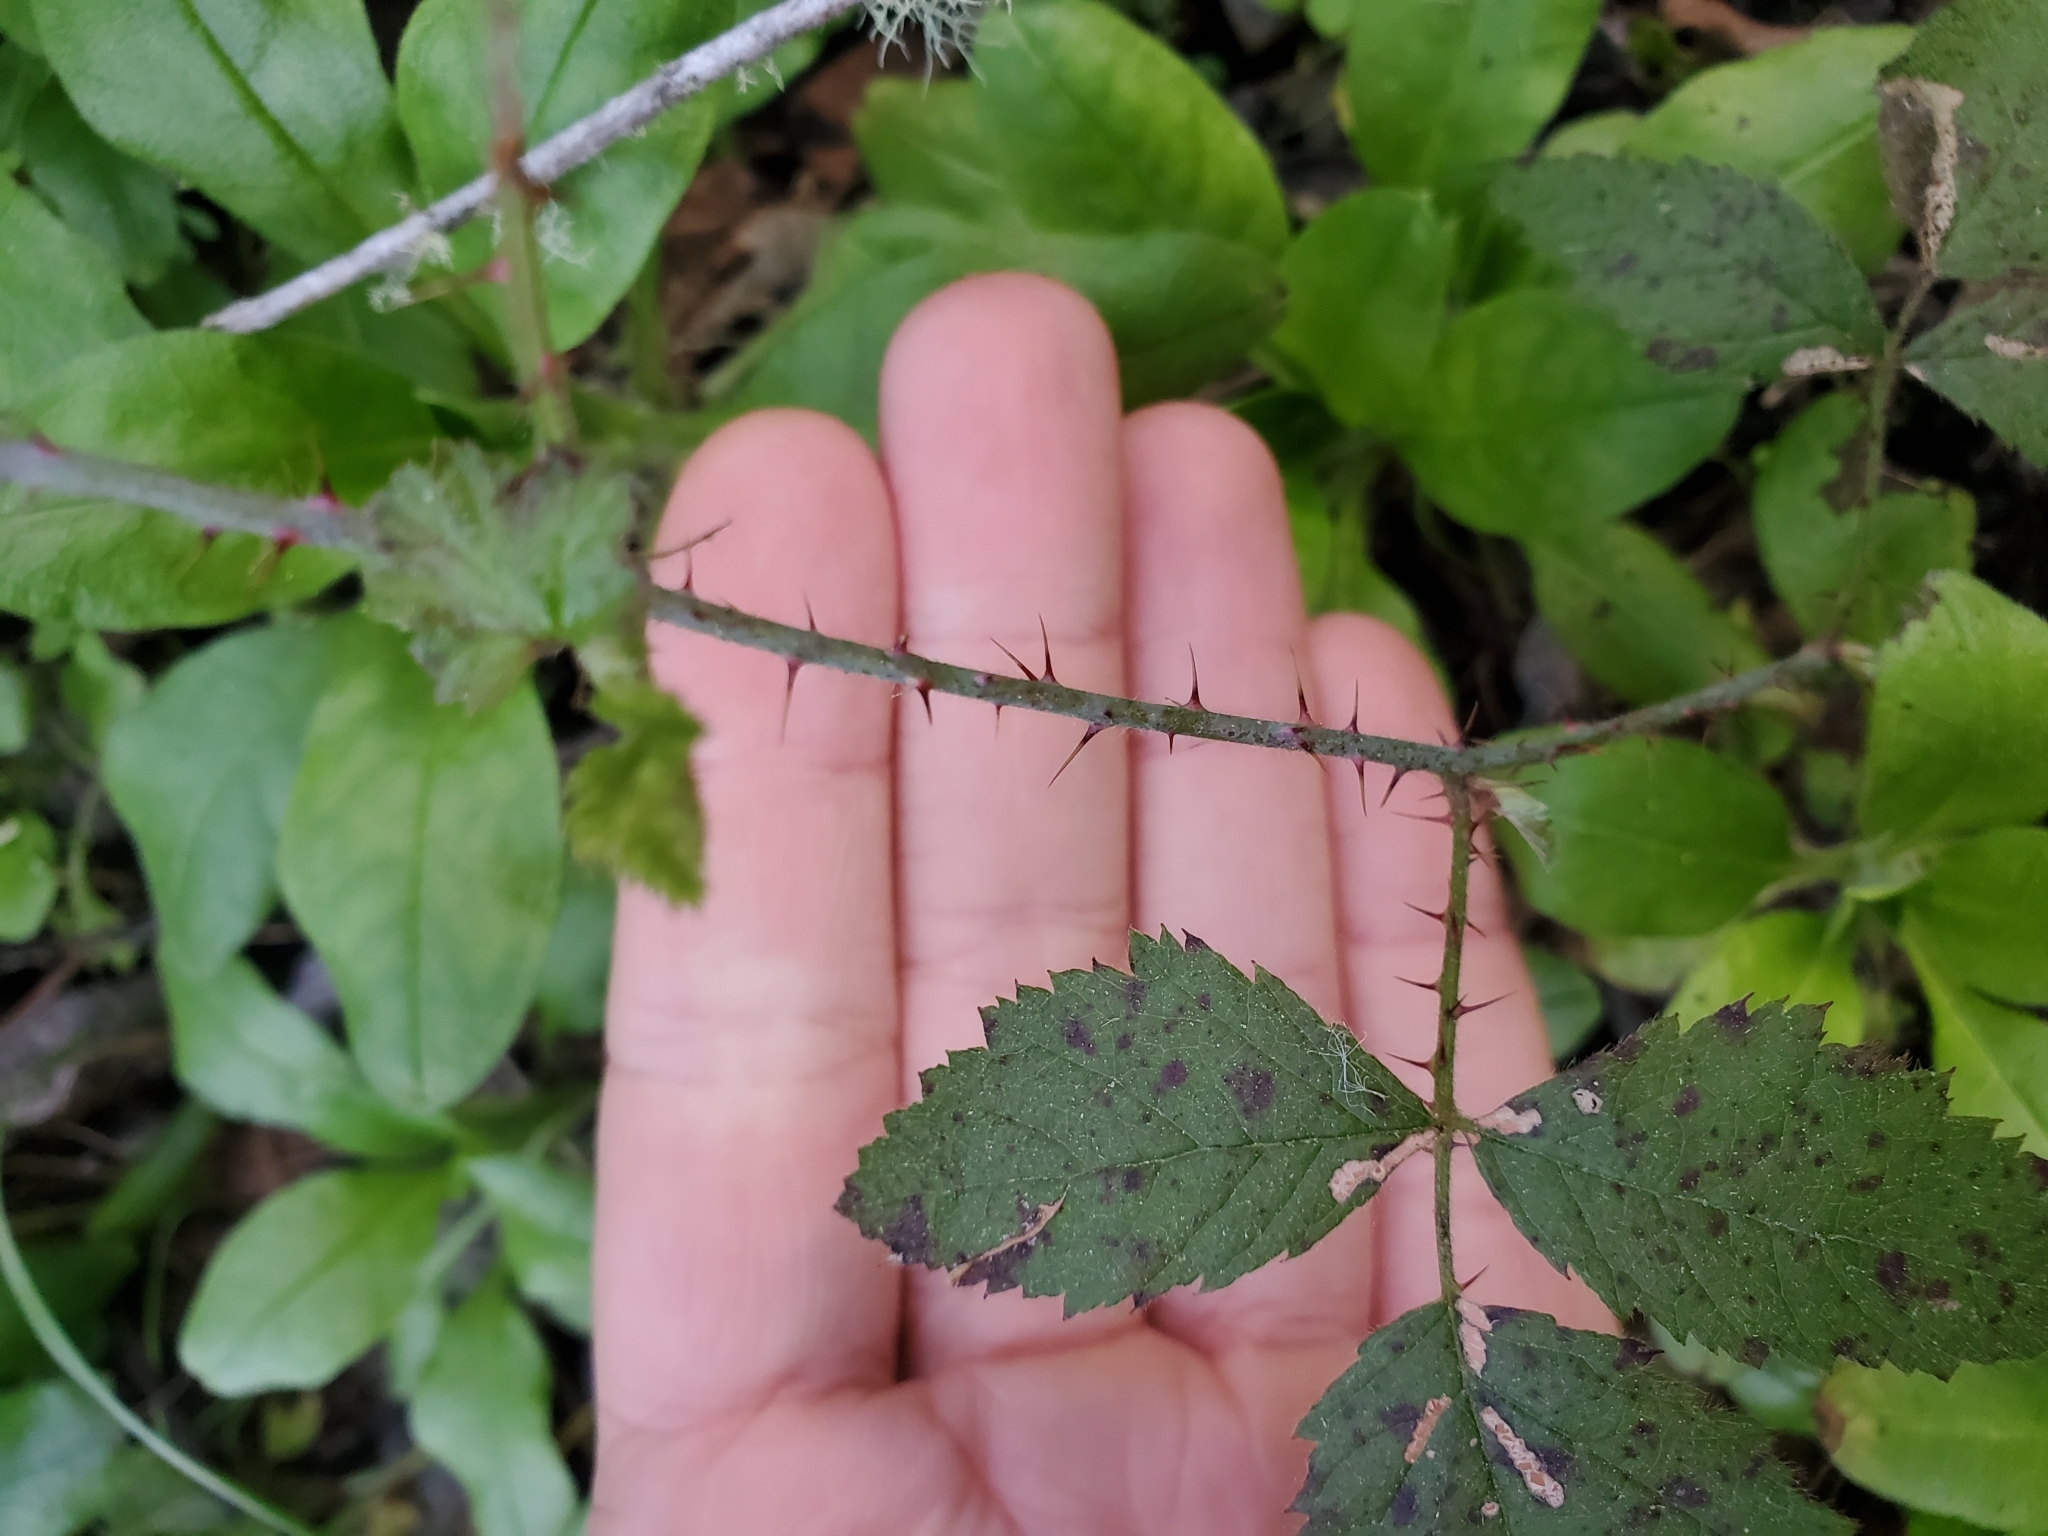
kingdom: Plantae
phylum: Tracheophyta
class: Magnoliopsida
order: Rosales
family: Rosaceae
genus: Rubus
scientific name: Rubus ursinus
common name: Pacific blackberry
